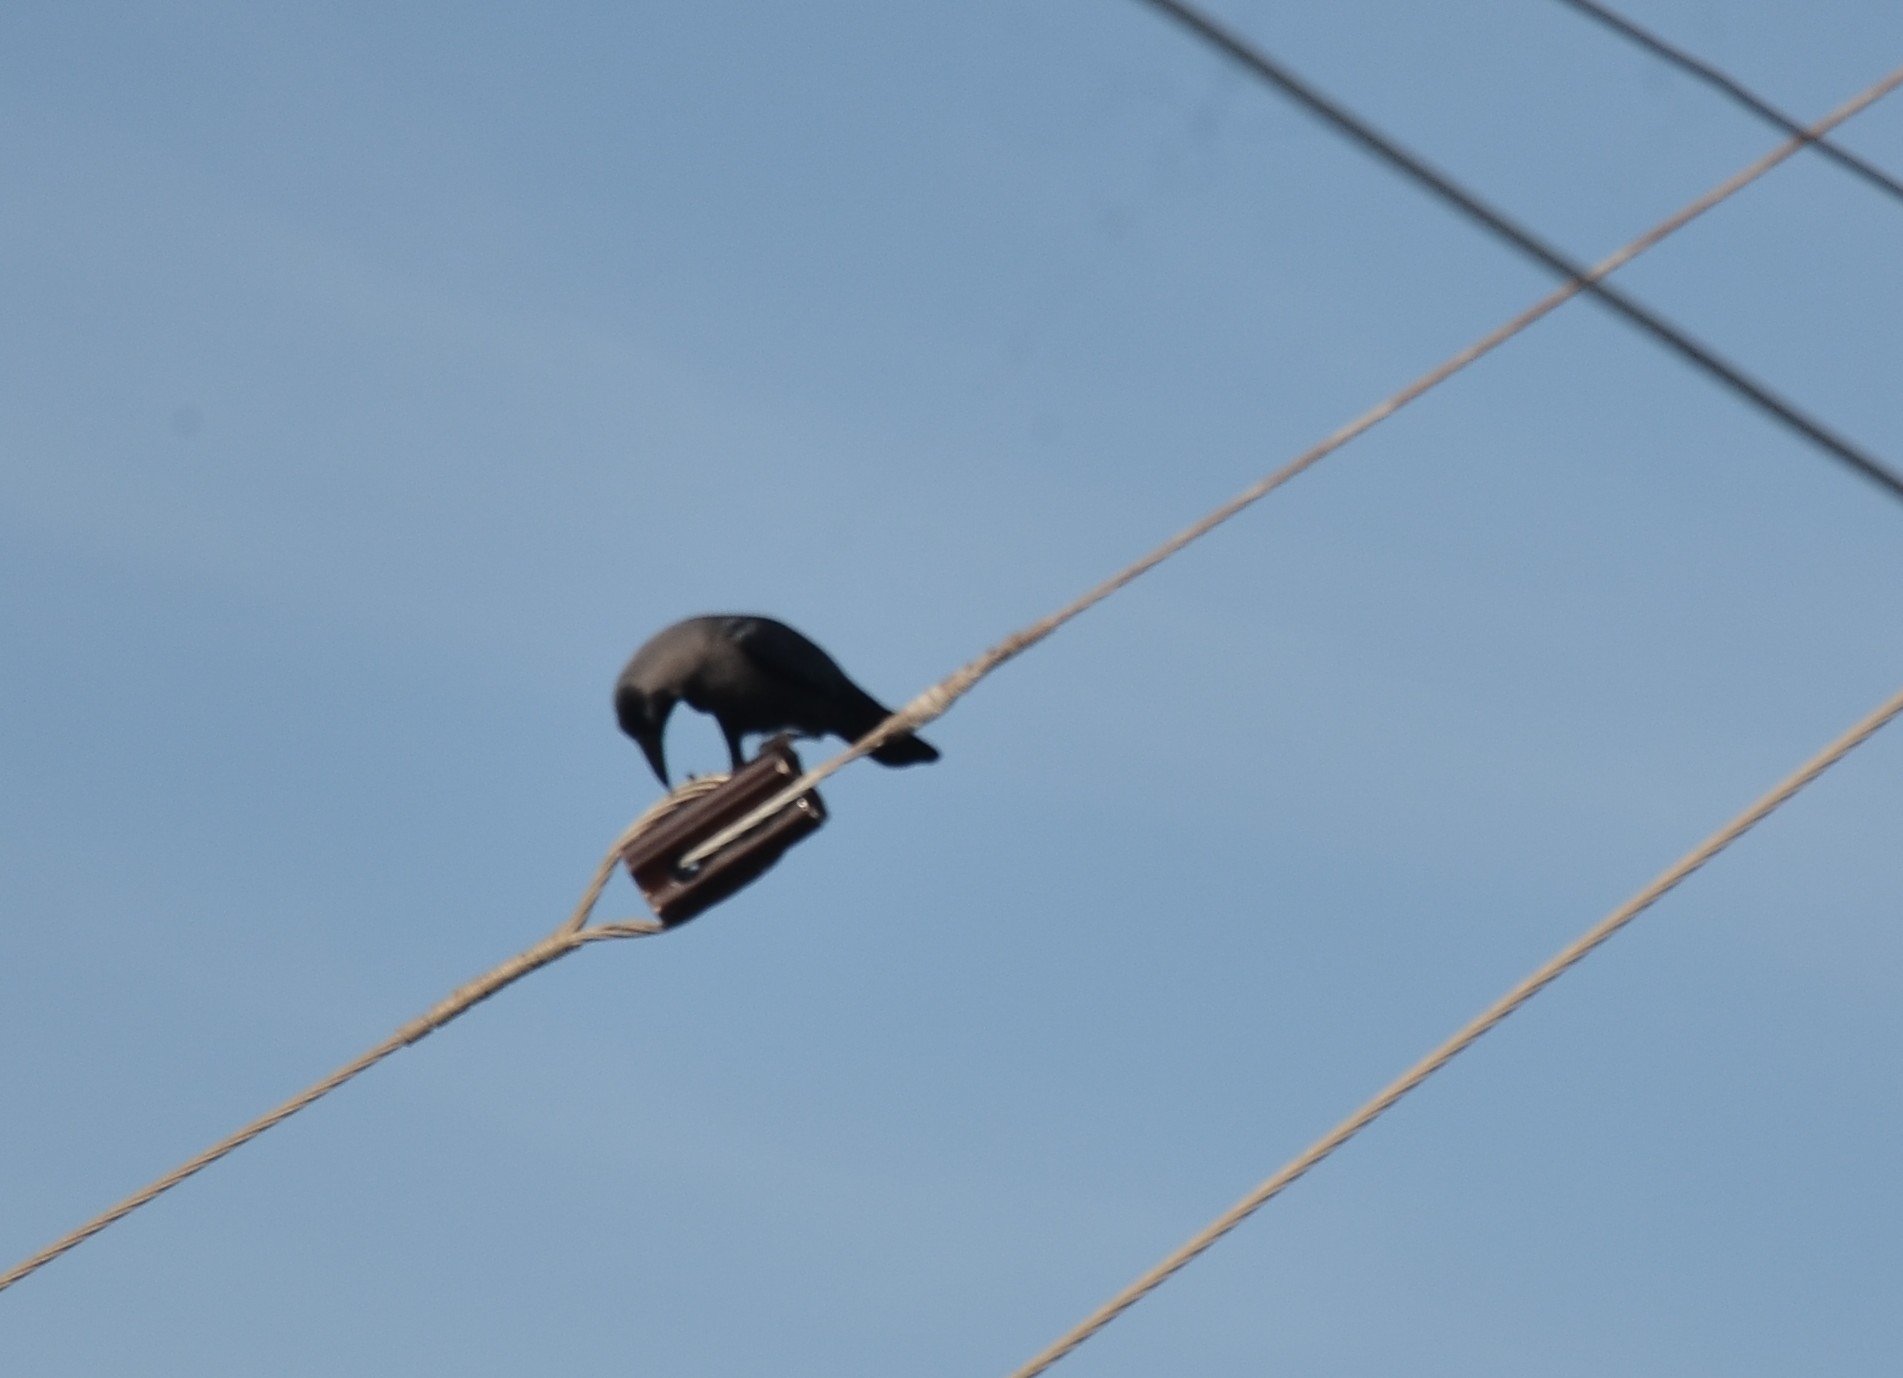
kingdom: Animalia
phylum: Chordata
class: Aves
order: Passeriformes
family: Corvidae
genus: Corvus
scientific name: Corvus splendens
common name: House crow
